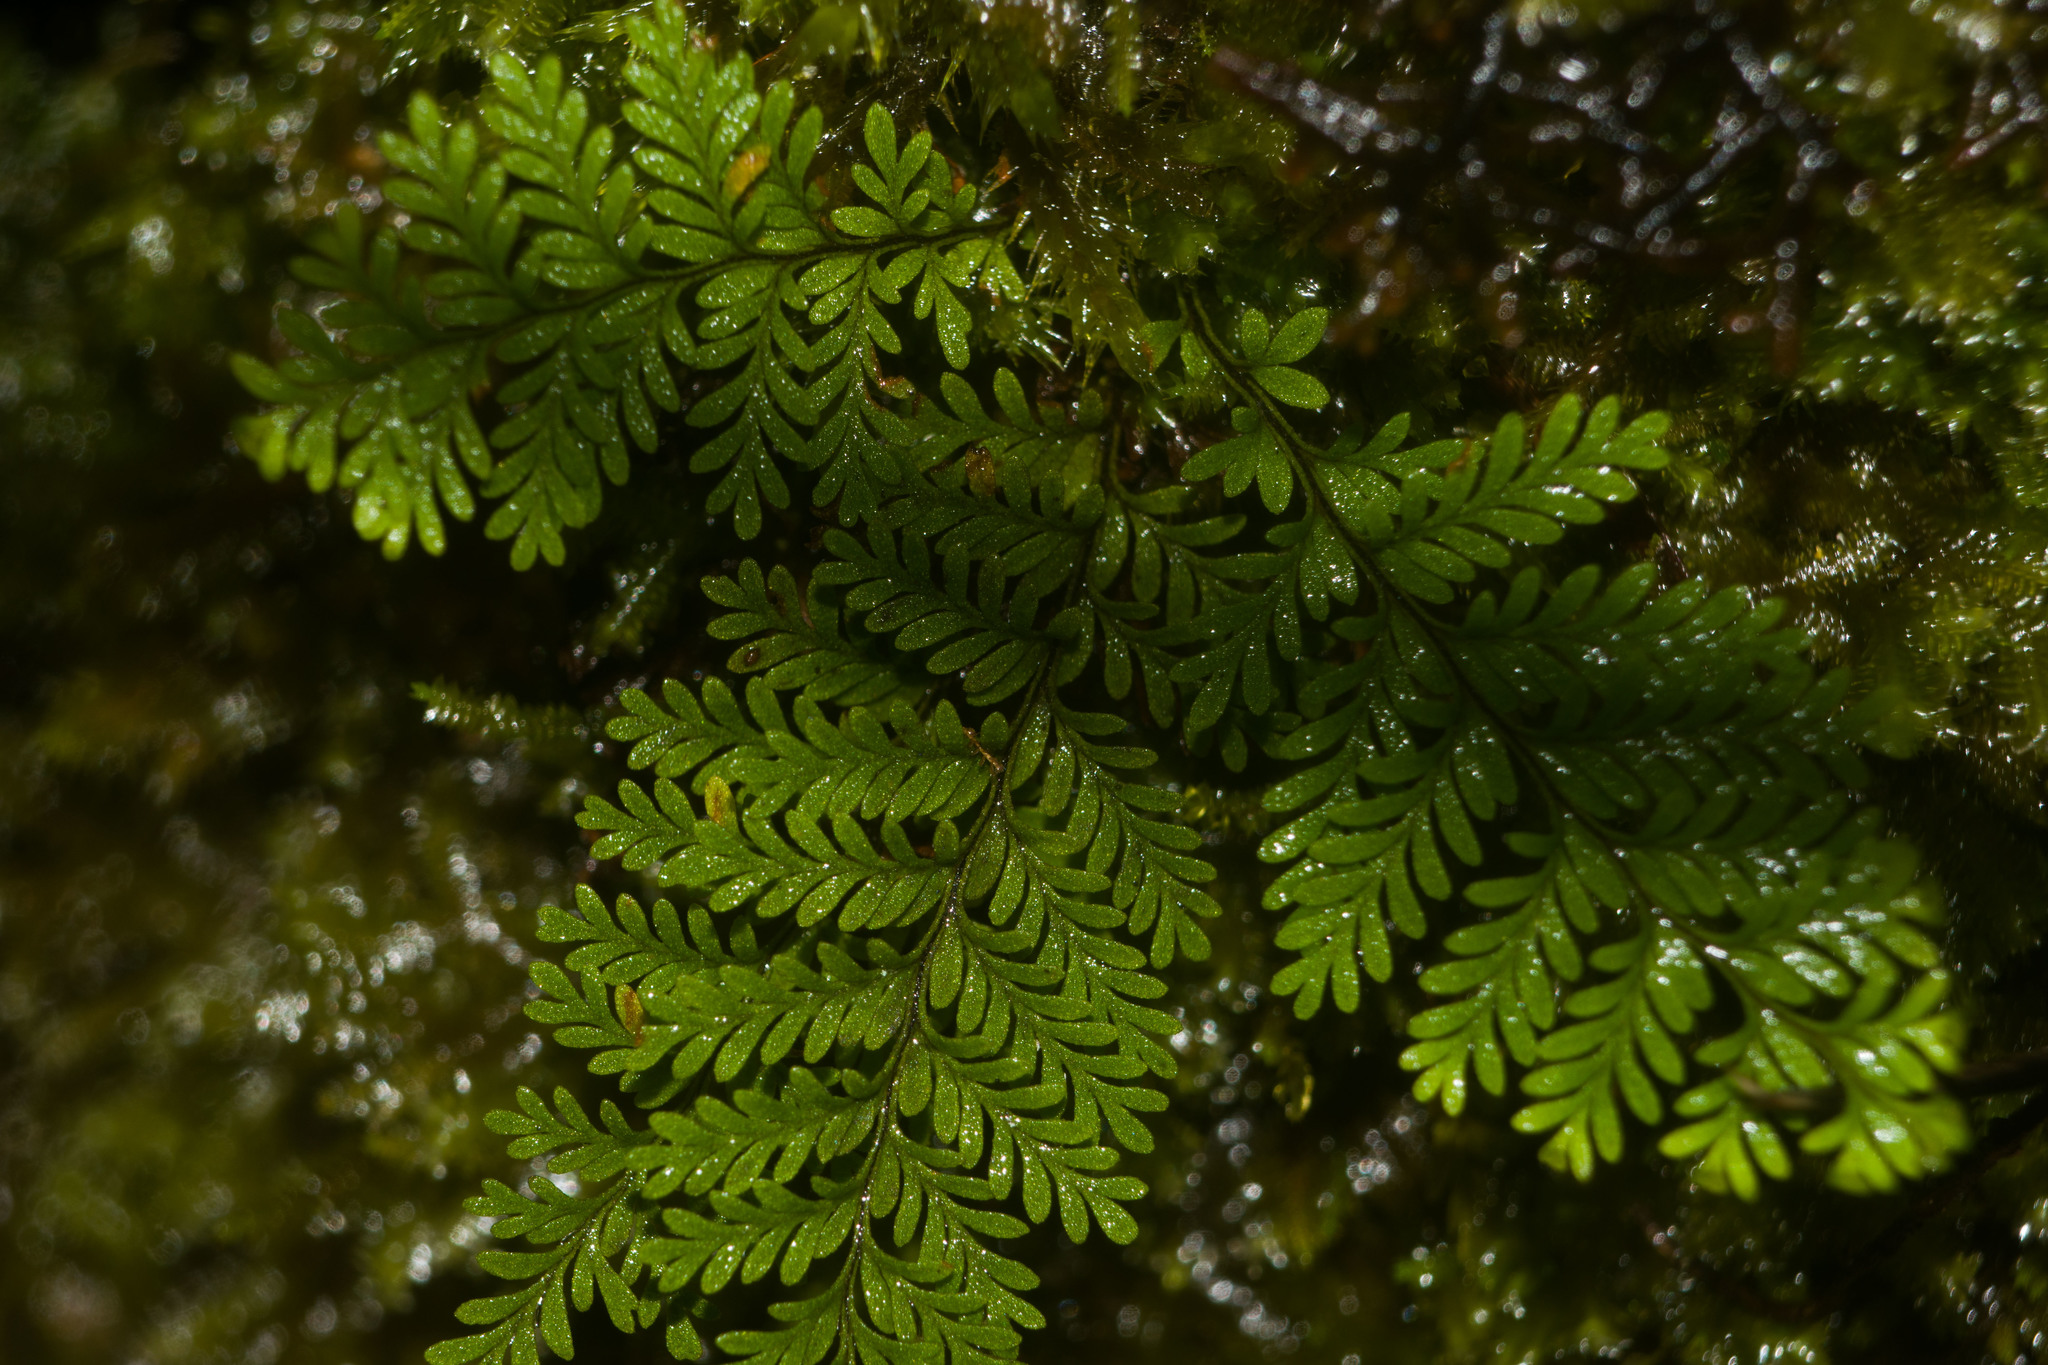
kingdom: Plantae
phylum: Tracheophyta
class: Polypodiopsida
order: Polypodiales
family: Polypodiaceae
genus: Adenophorus
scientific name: Adenophorus tamariscinus
